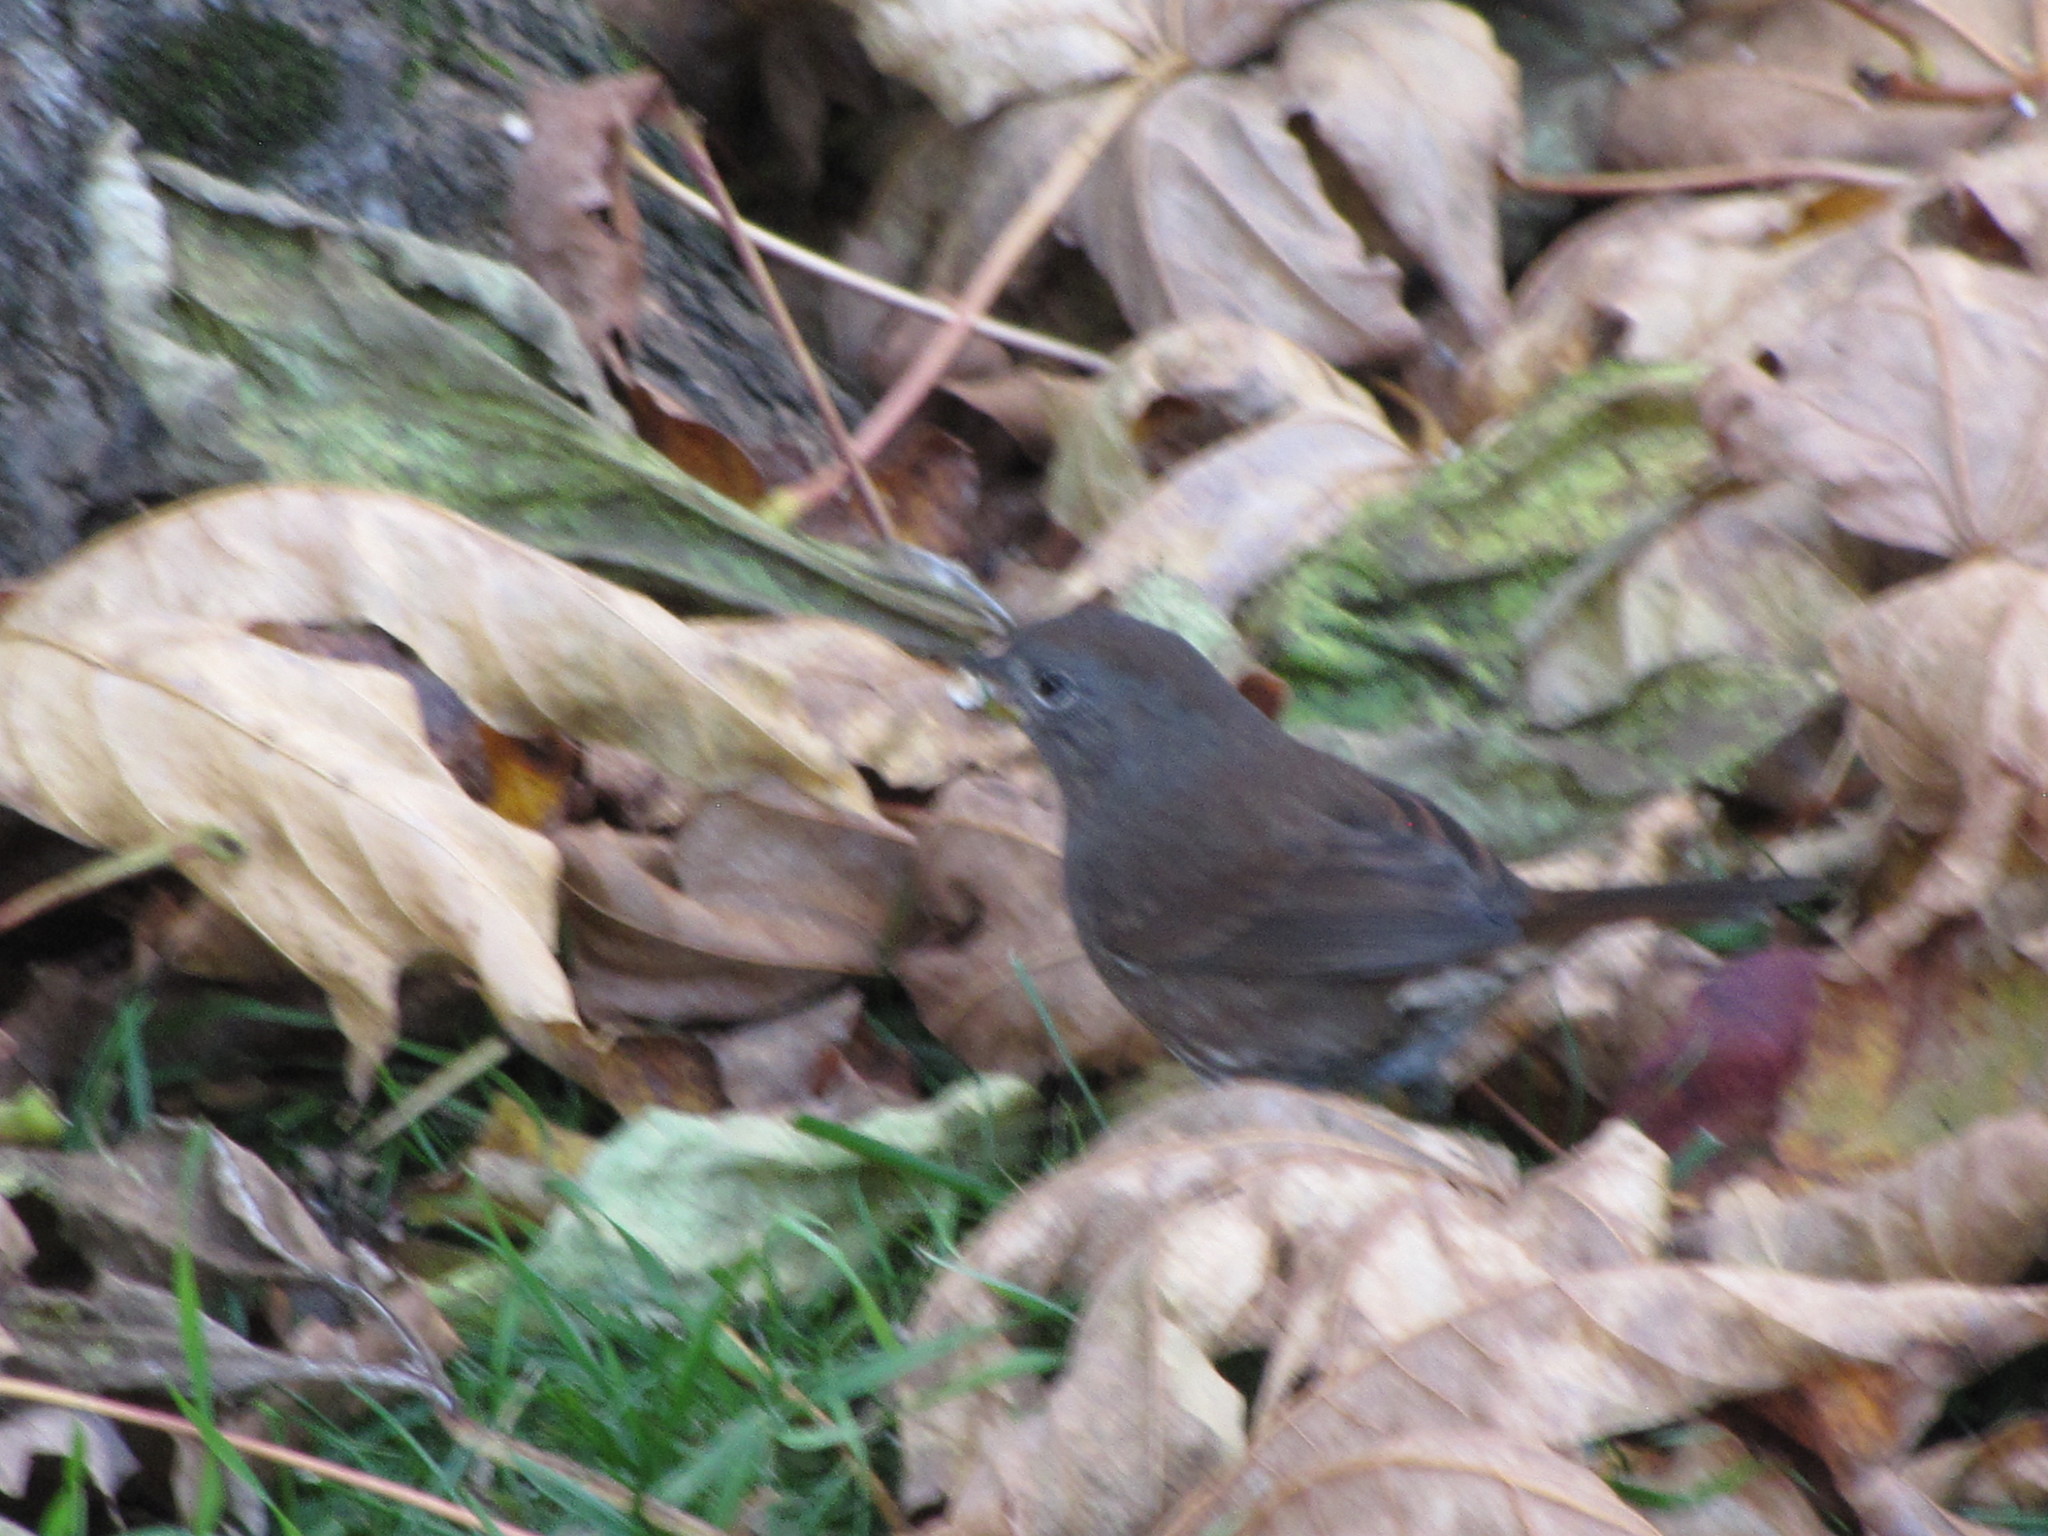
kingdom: Animalia
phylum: Chordata
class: Aves
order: Passeriformes
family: Passerellidae
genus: Passerella
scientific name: Passerella iliaca
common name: Fox sparrow
